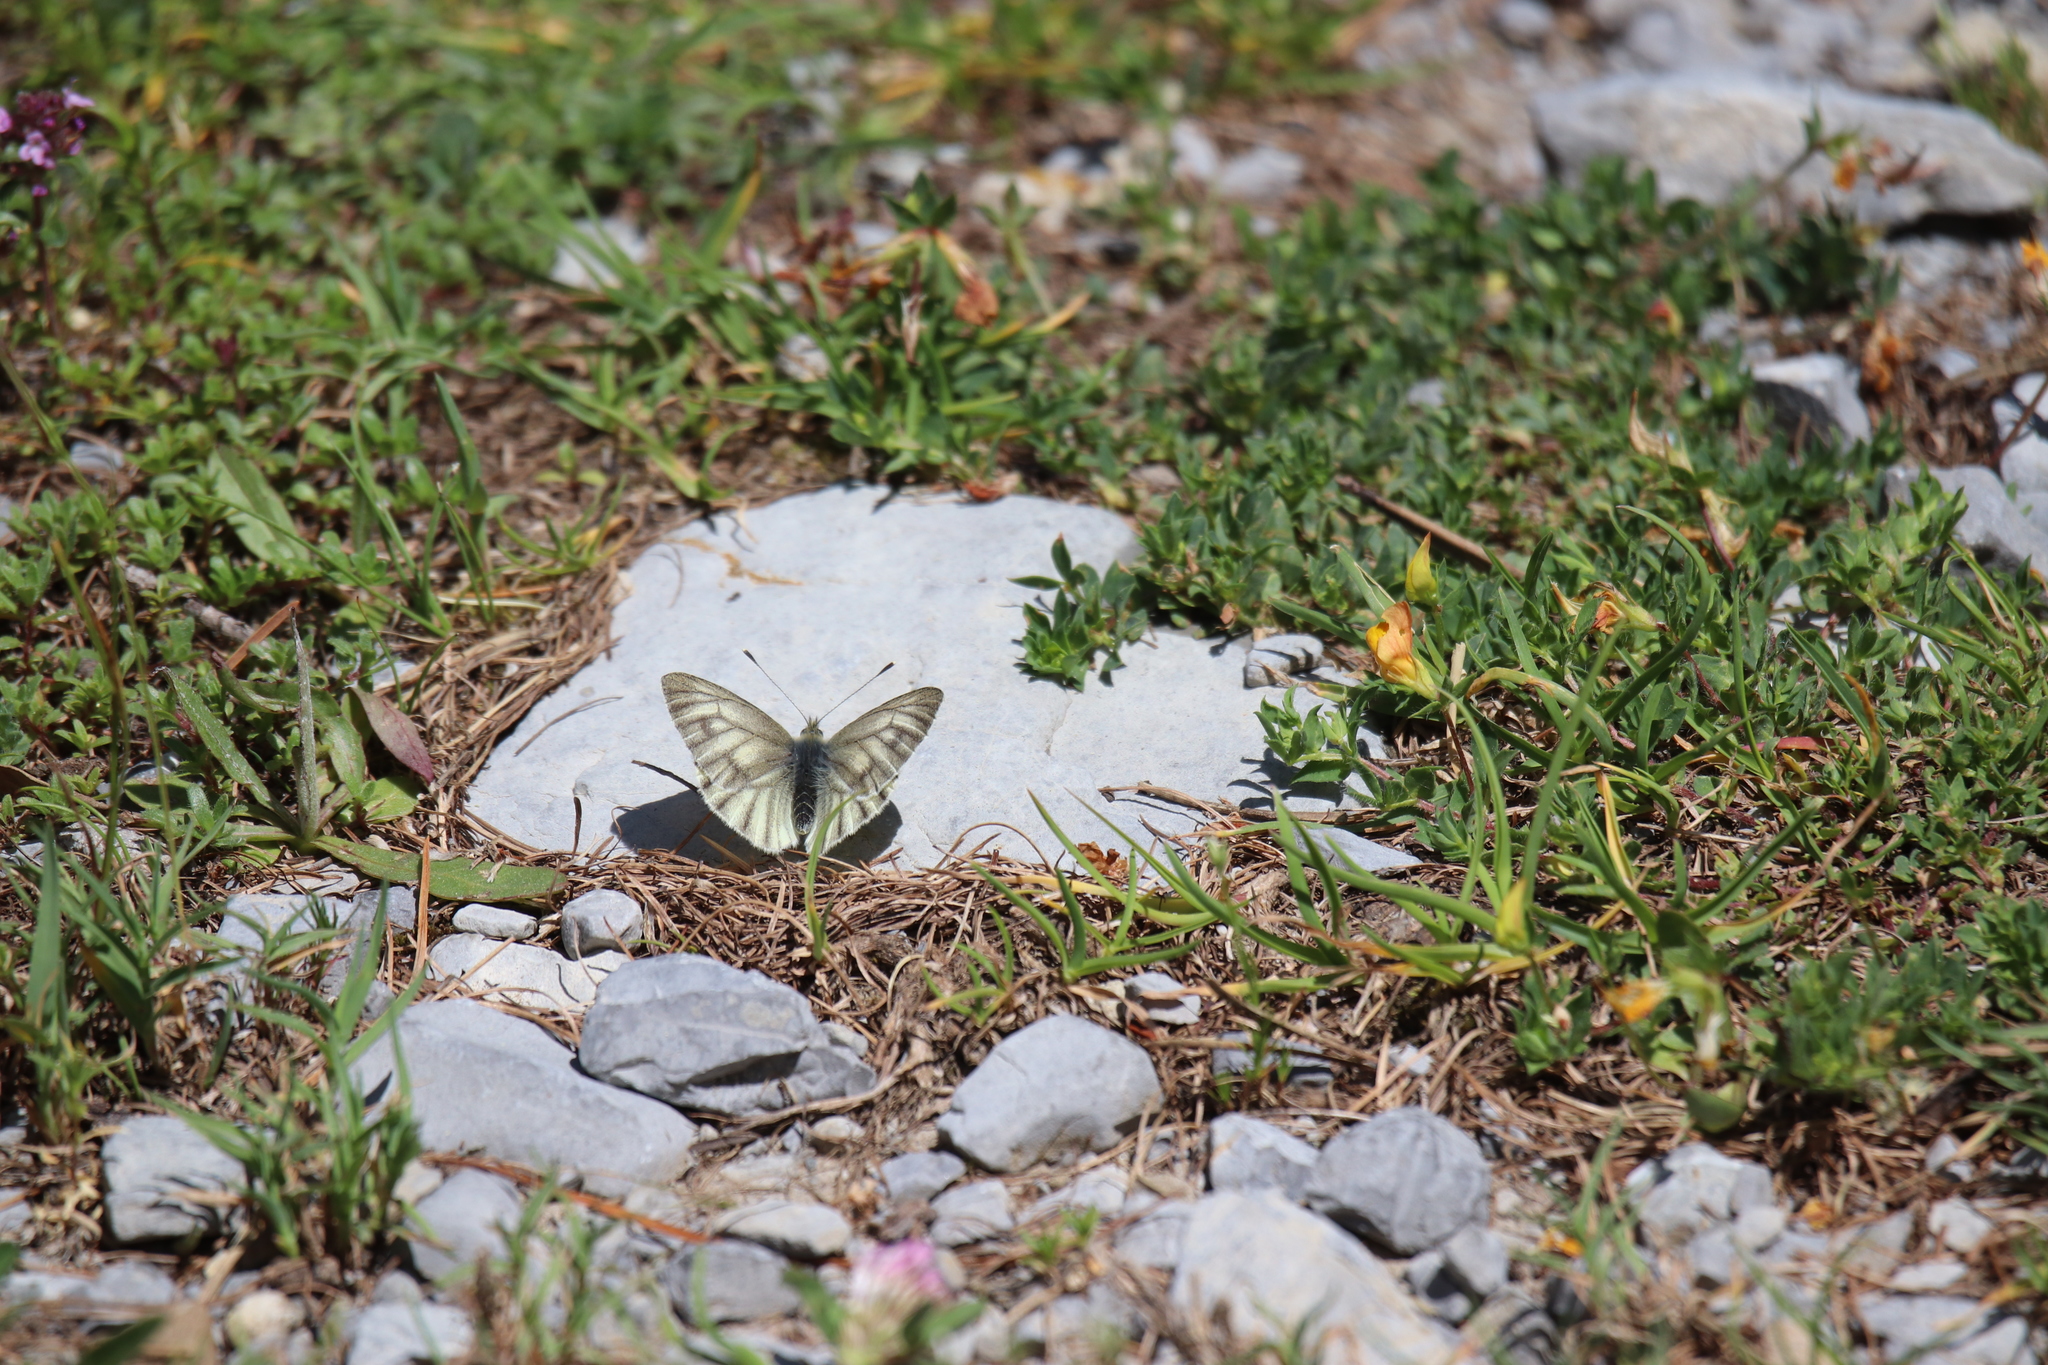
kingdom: Animalia
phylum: Arthropoda
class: Insecta
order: Lepidoptera
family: Pieridae
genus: Pieris
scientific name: Pieris bryoniae
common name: Mountain green-veined white
